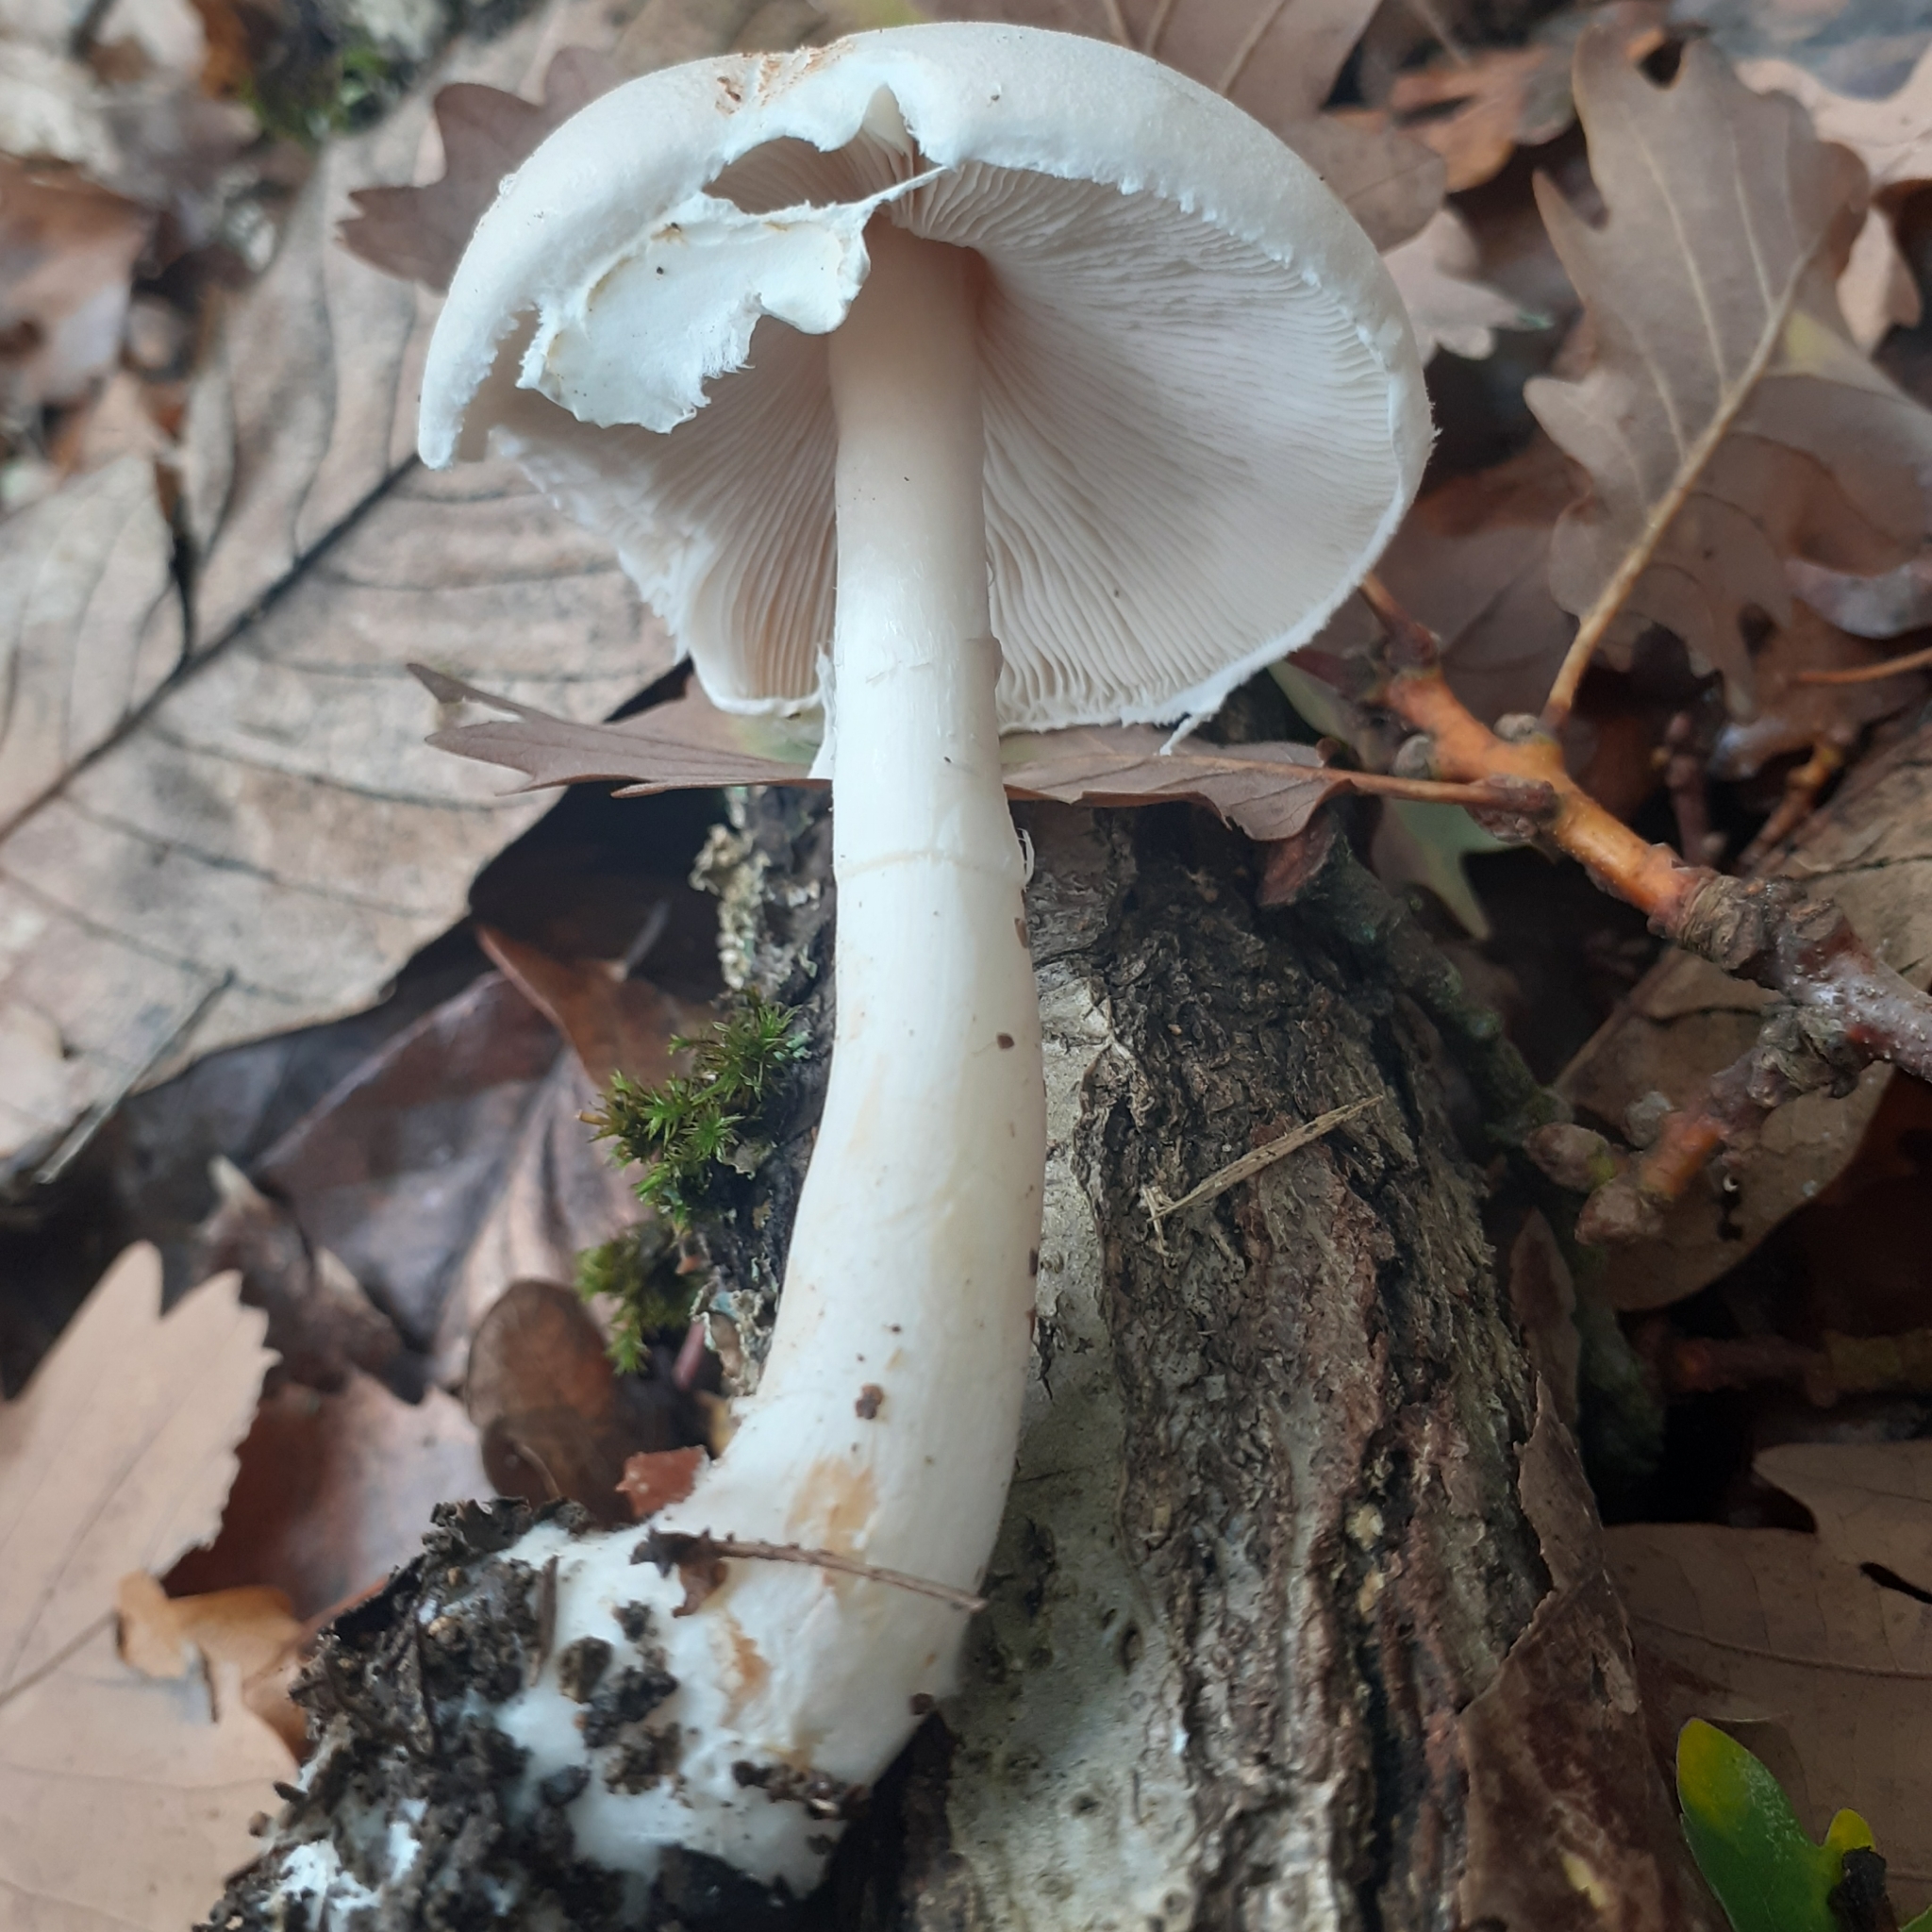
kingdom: Fungi
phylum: Basidiomycota
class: Agaricomycetes
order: Agaricales
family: Agaricaceae
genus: Leucoagaricus
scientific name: Leucoagaricus leucothites
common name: White dapperling
